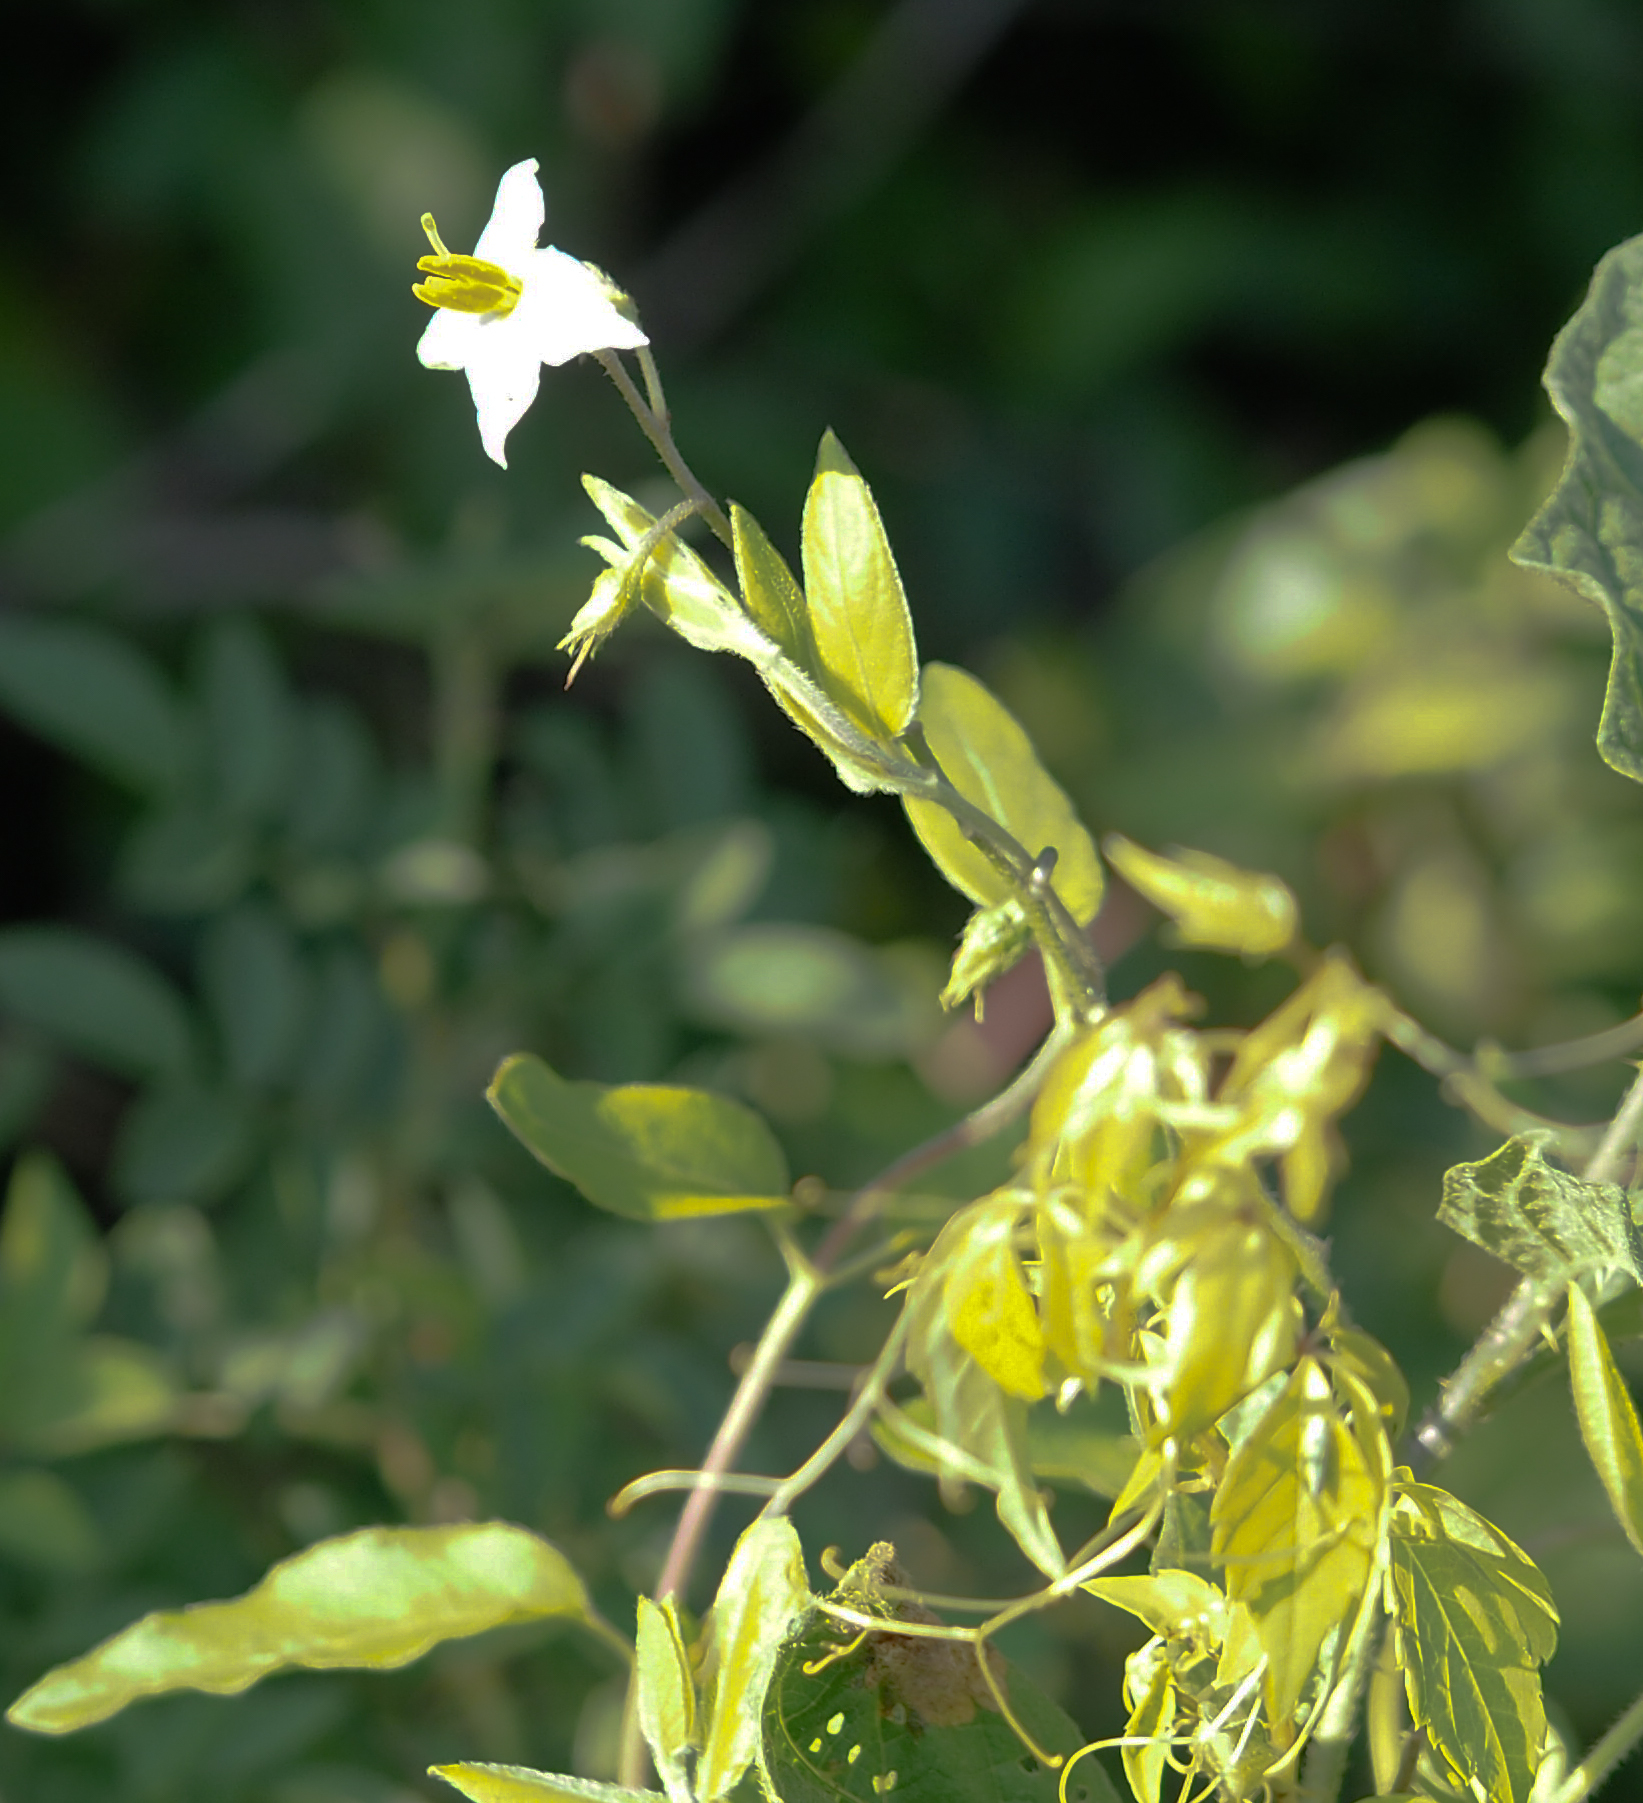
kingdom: Plantae
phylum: Tracheophyta
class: Magnoliopsida
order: Solanales
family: Solanaceae
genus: Solanum
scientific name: Solanum carolinense
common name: Horse-nettle
